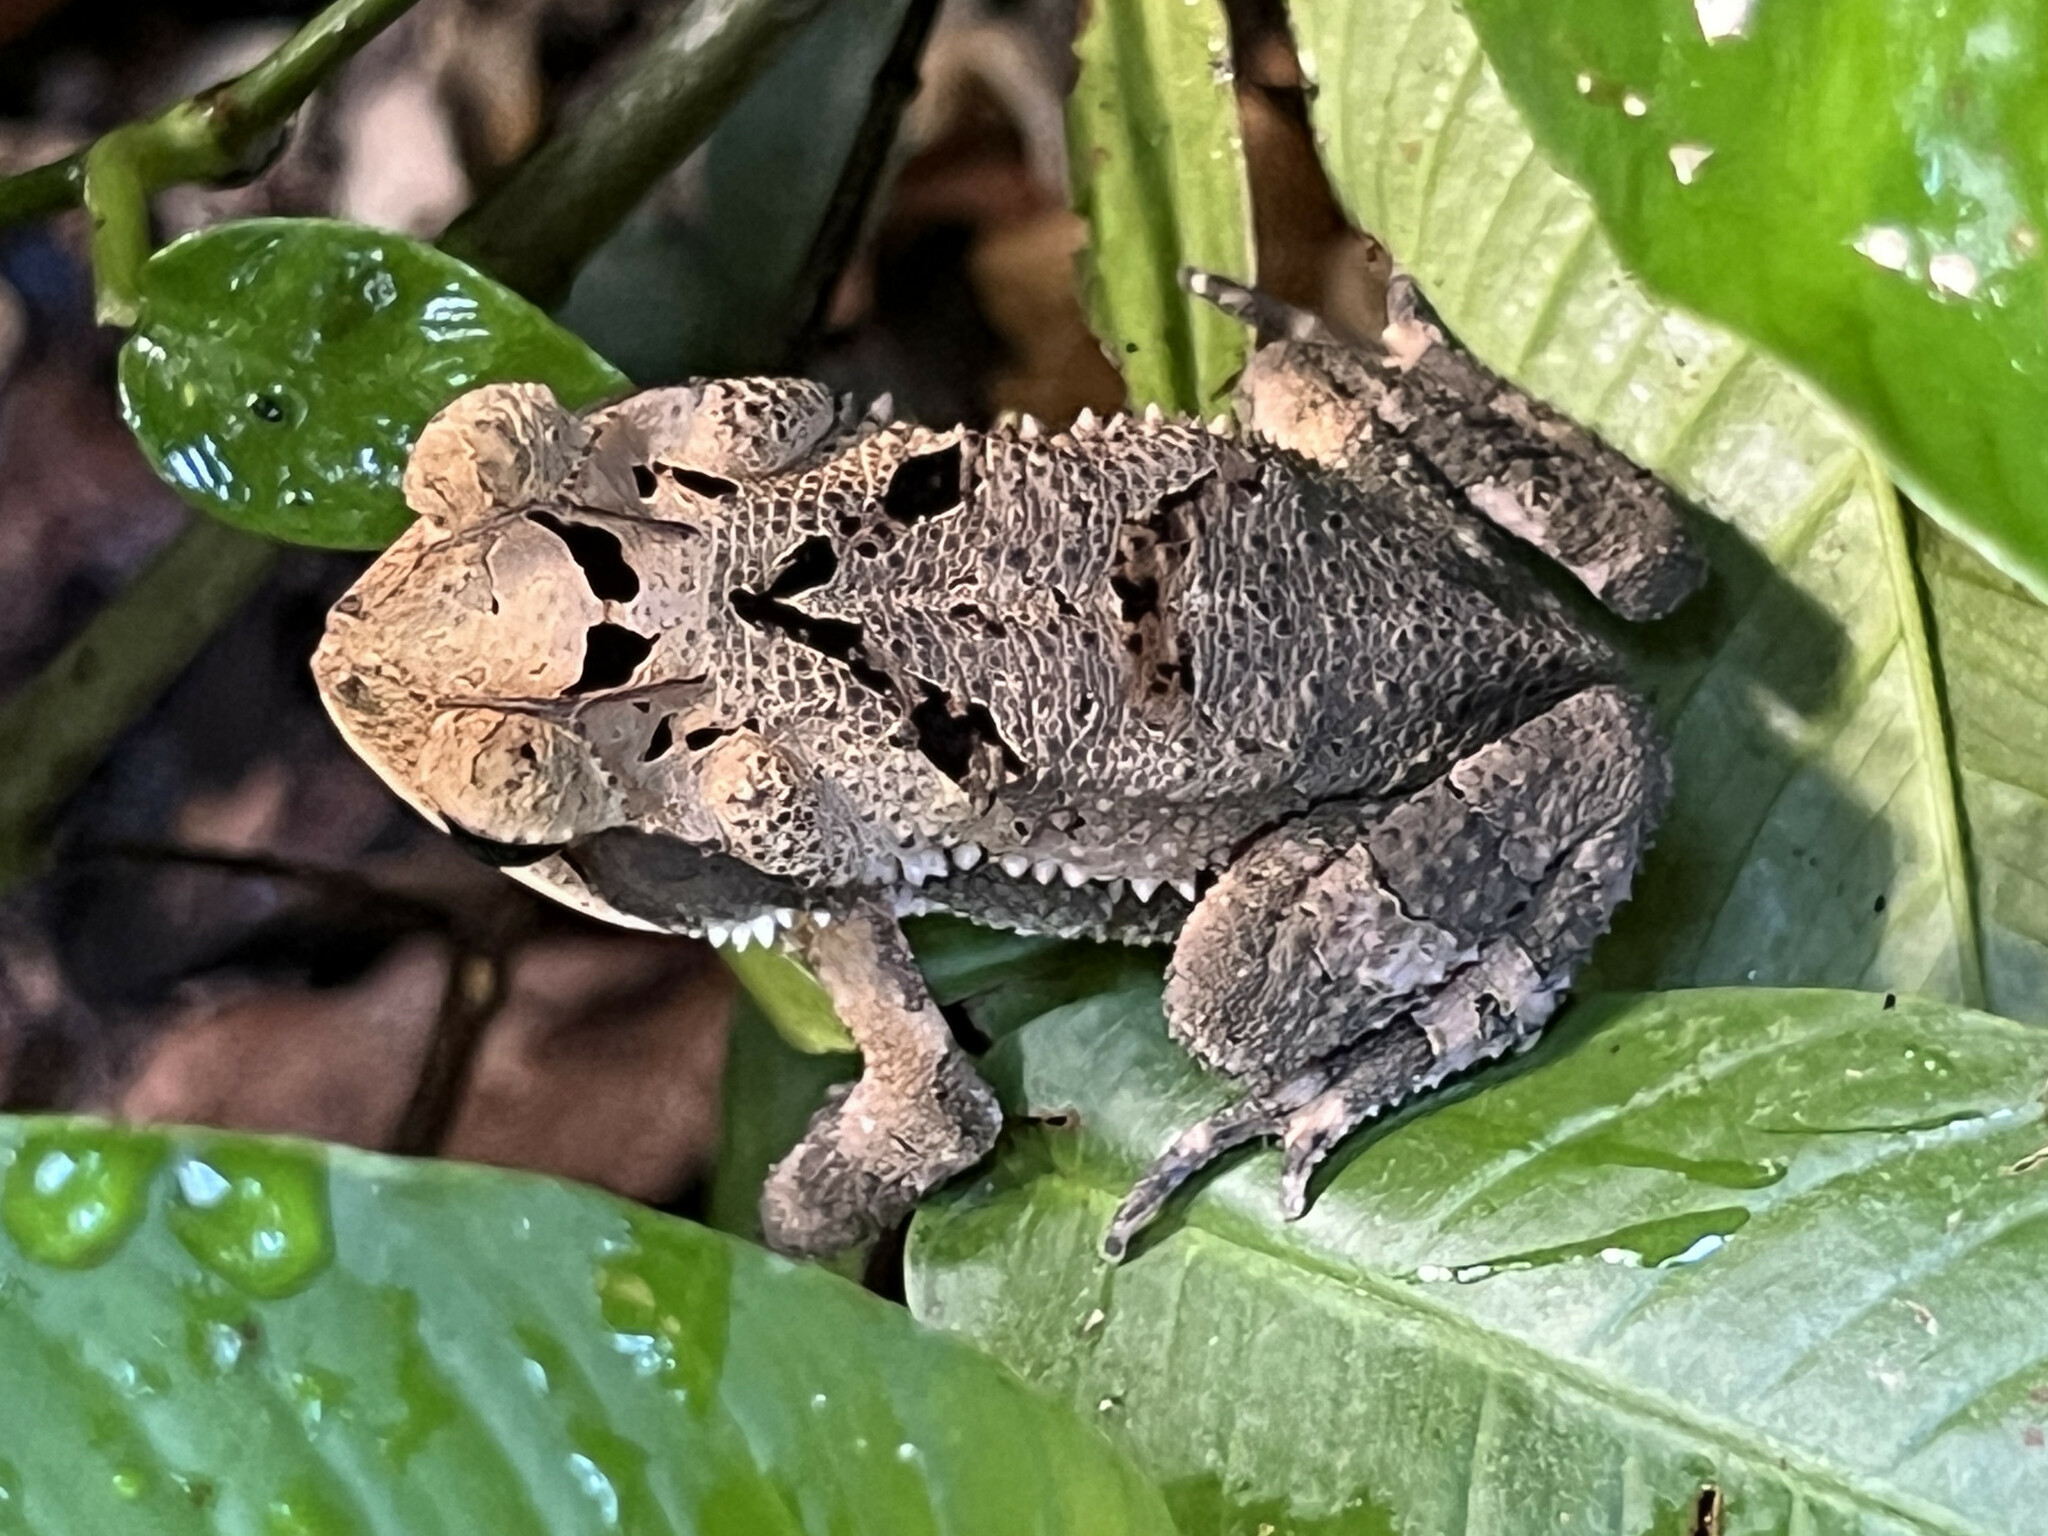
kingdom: Animalia
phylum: Chordata
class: Amphibia
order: Anura
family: Bufonidae
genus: Incilius
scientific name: Incilius valliceps
